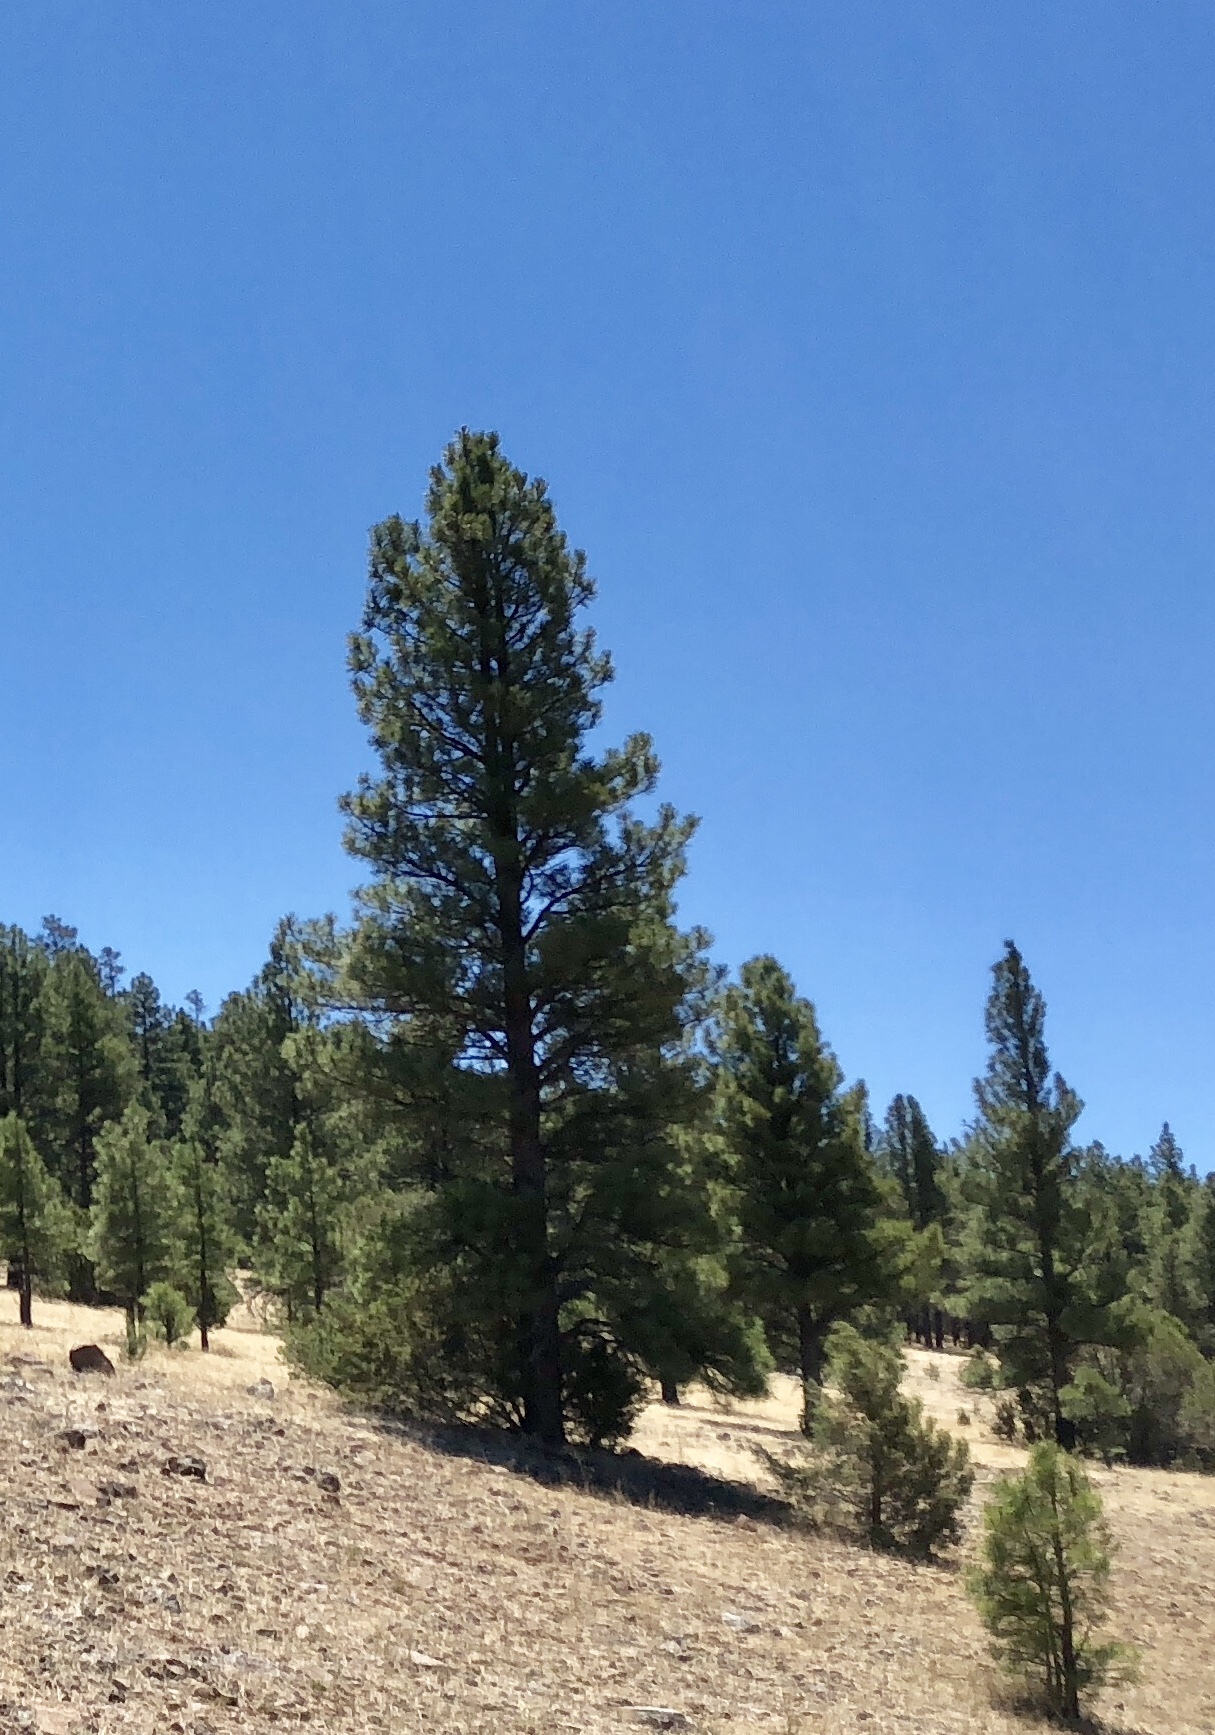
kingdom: Plantae
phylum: Tracheophyta
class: Pinopsida
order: Pinales
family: Pinaceae
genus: Pinus
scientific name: Pinus ponderosa
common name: Western yellow-pine
